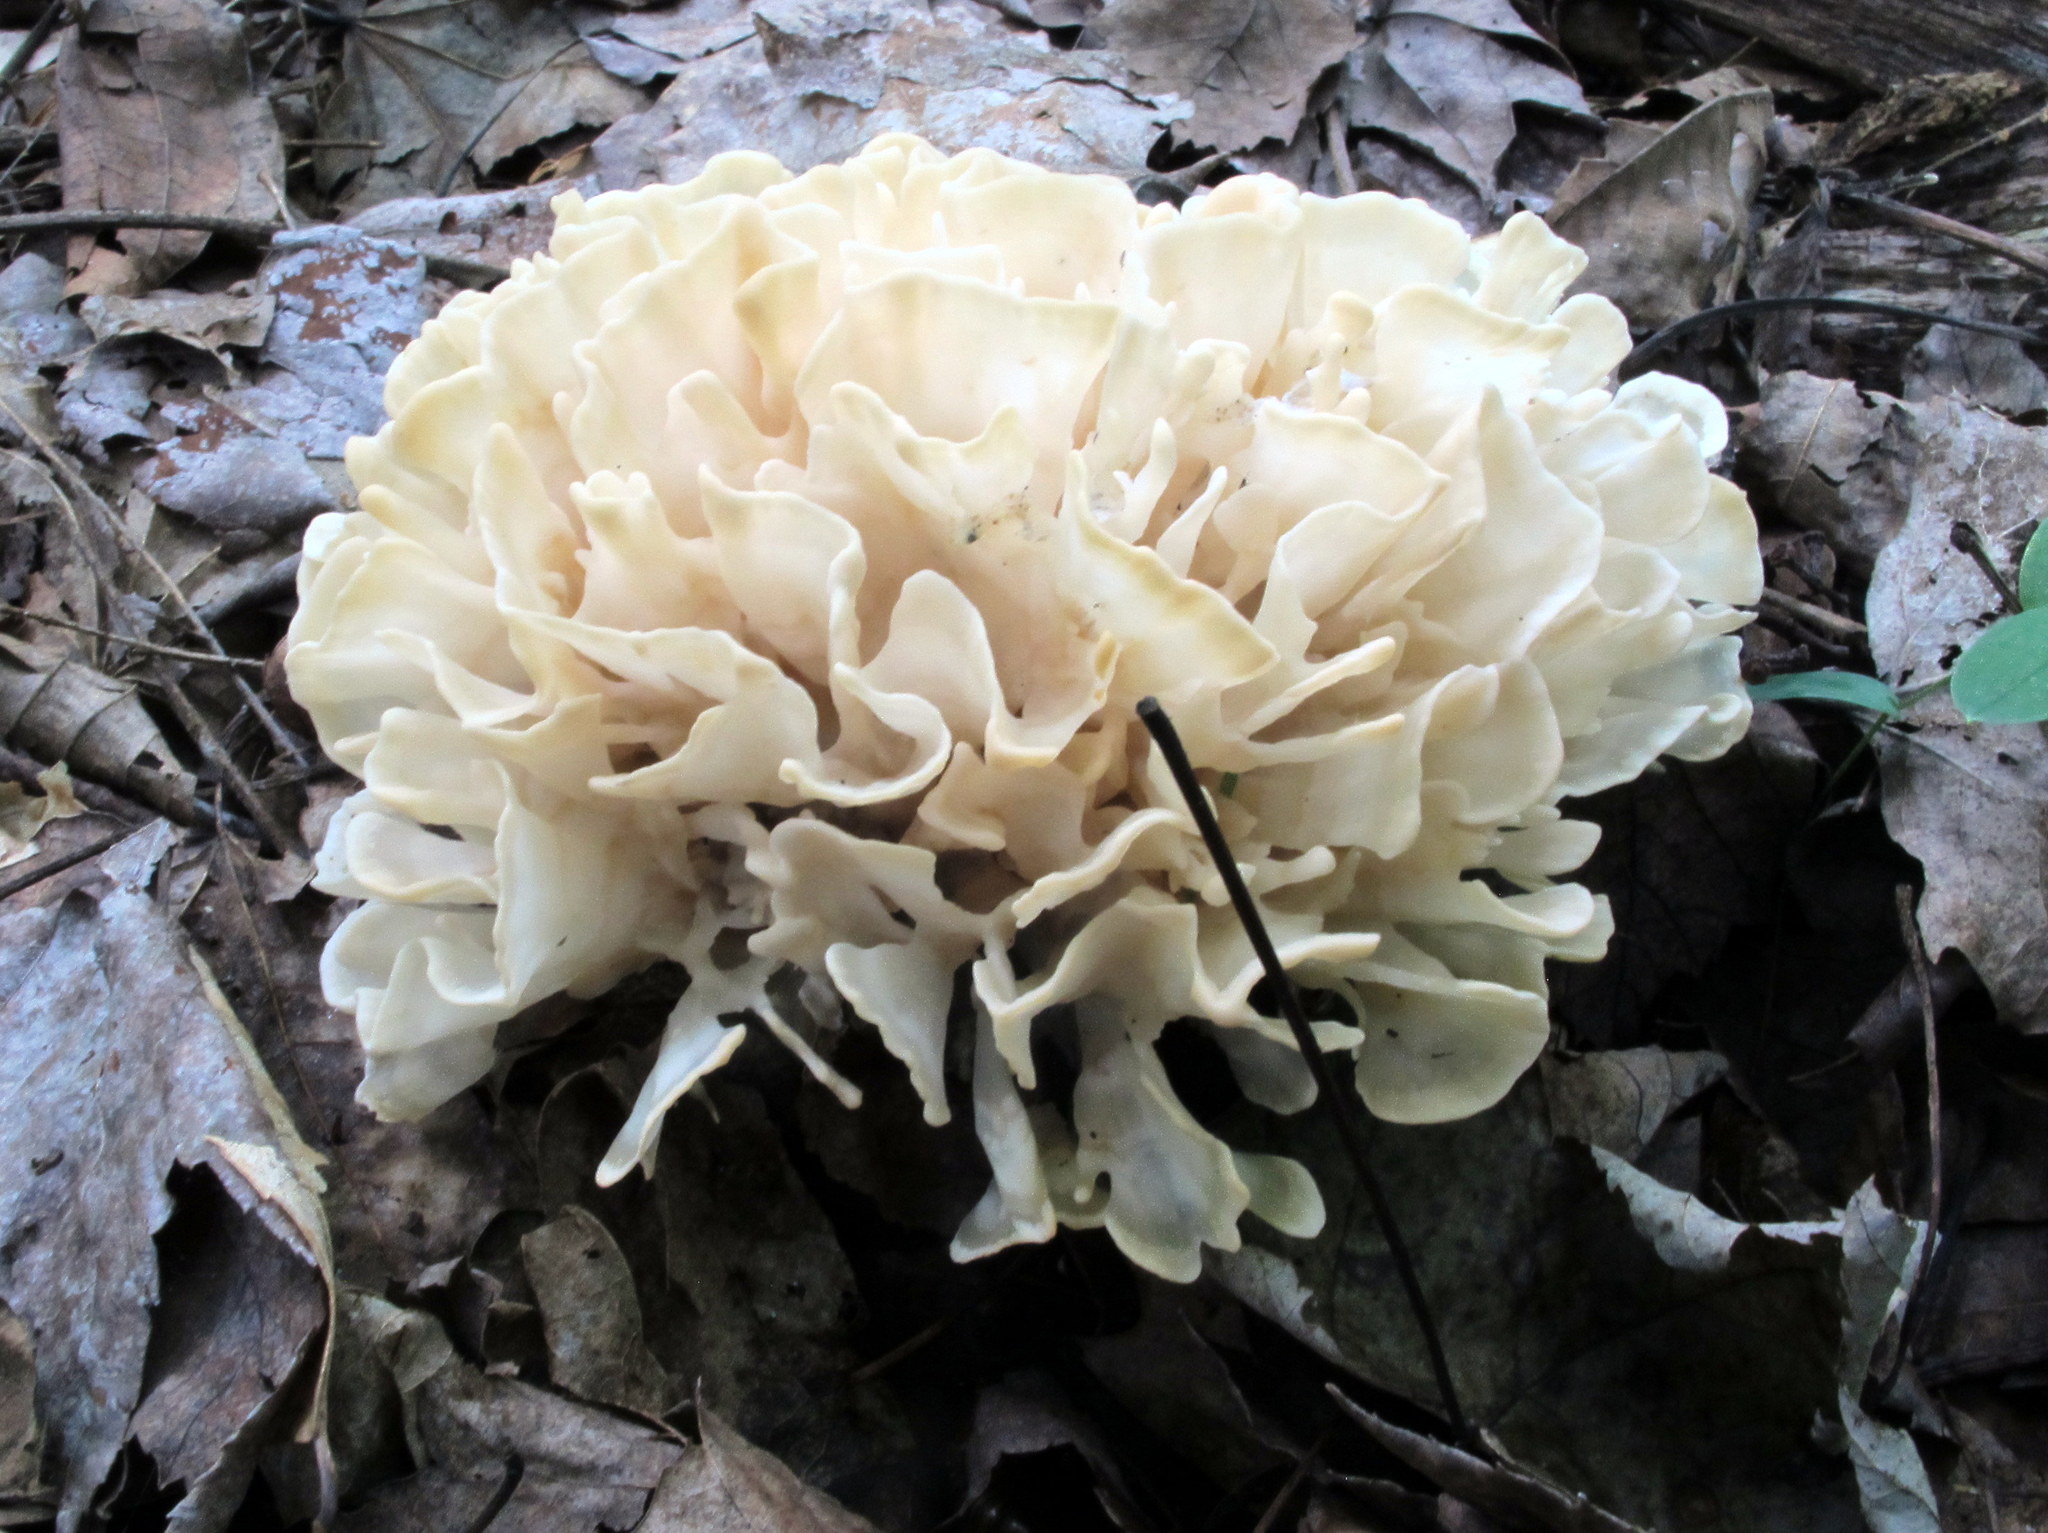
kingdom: Fungi
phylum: Basidiomycota
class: Agaricomycetes
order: Polyporales
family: Sparassidaceae
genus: Sparassis
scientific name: Sparassis spathulata
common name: Eastern cauliflower mushroom
